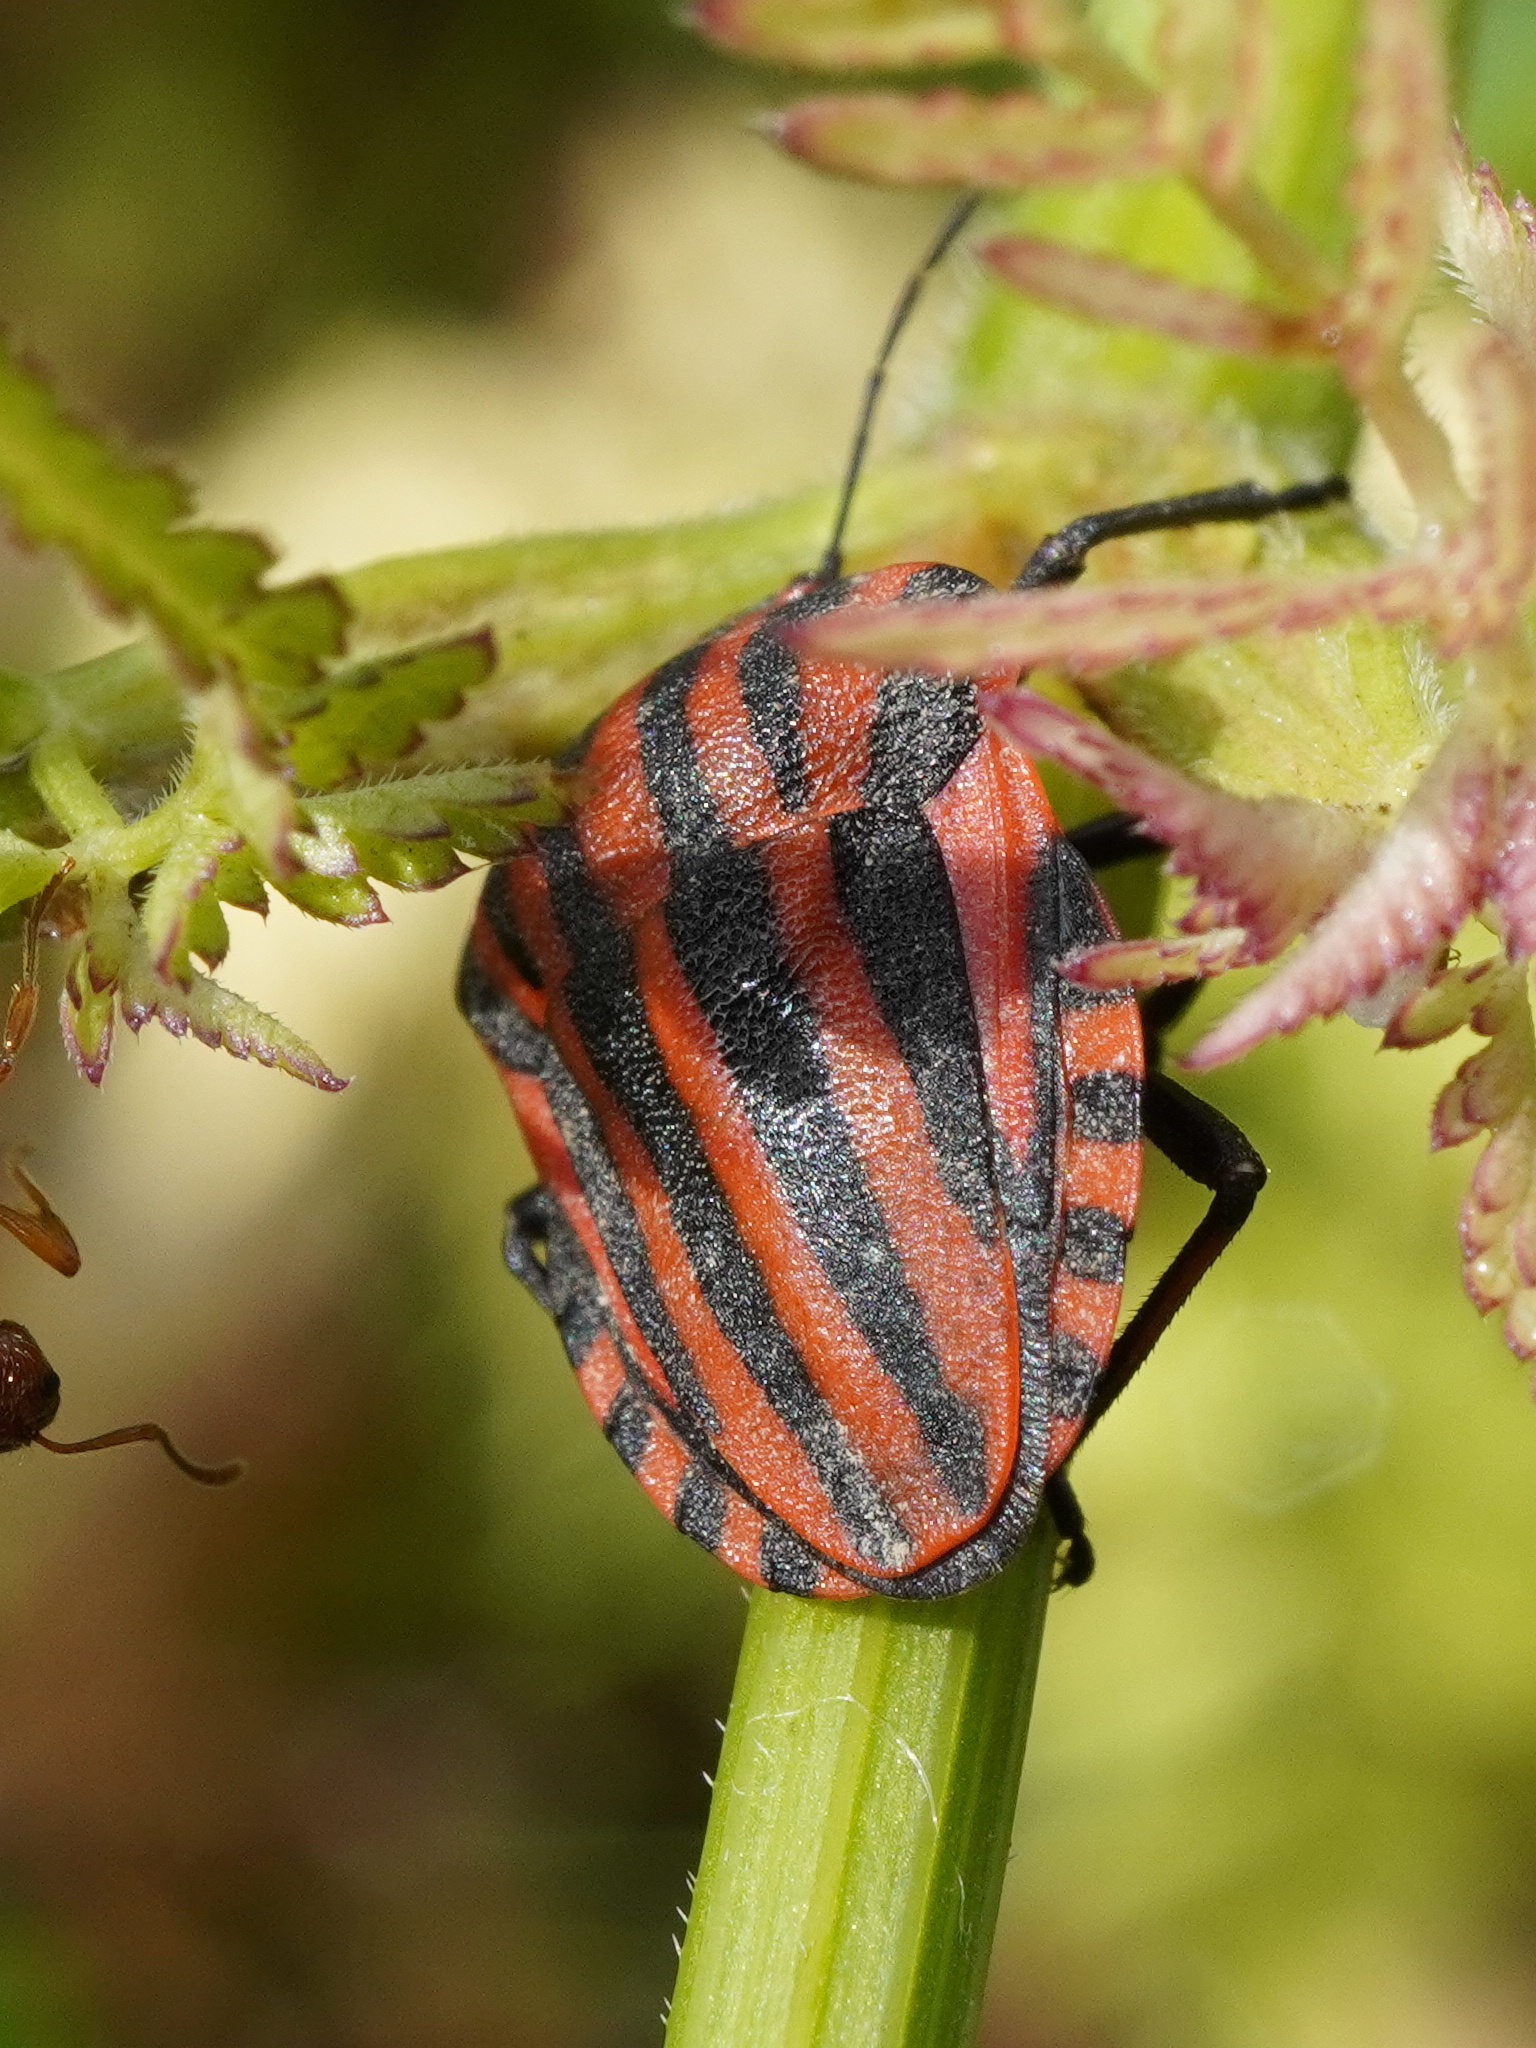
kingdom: Animalia
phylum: Arthropoda
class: Insecta
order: Hemiptera
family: Pentatomidae
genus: Graphosoma
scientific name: Graphosoma italicum
